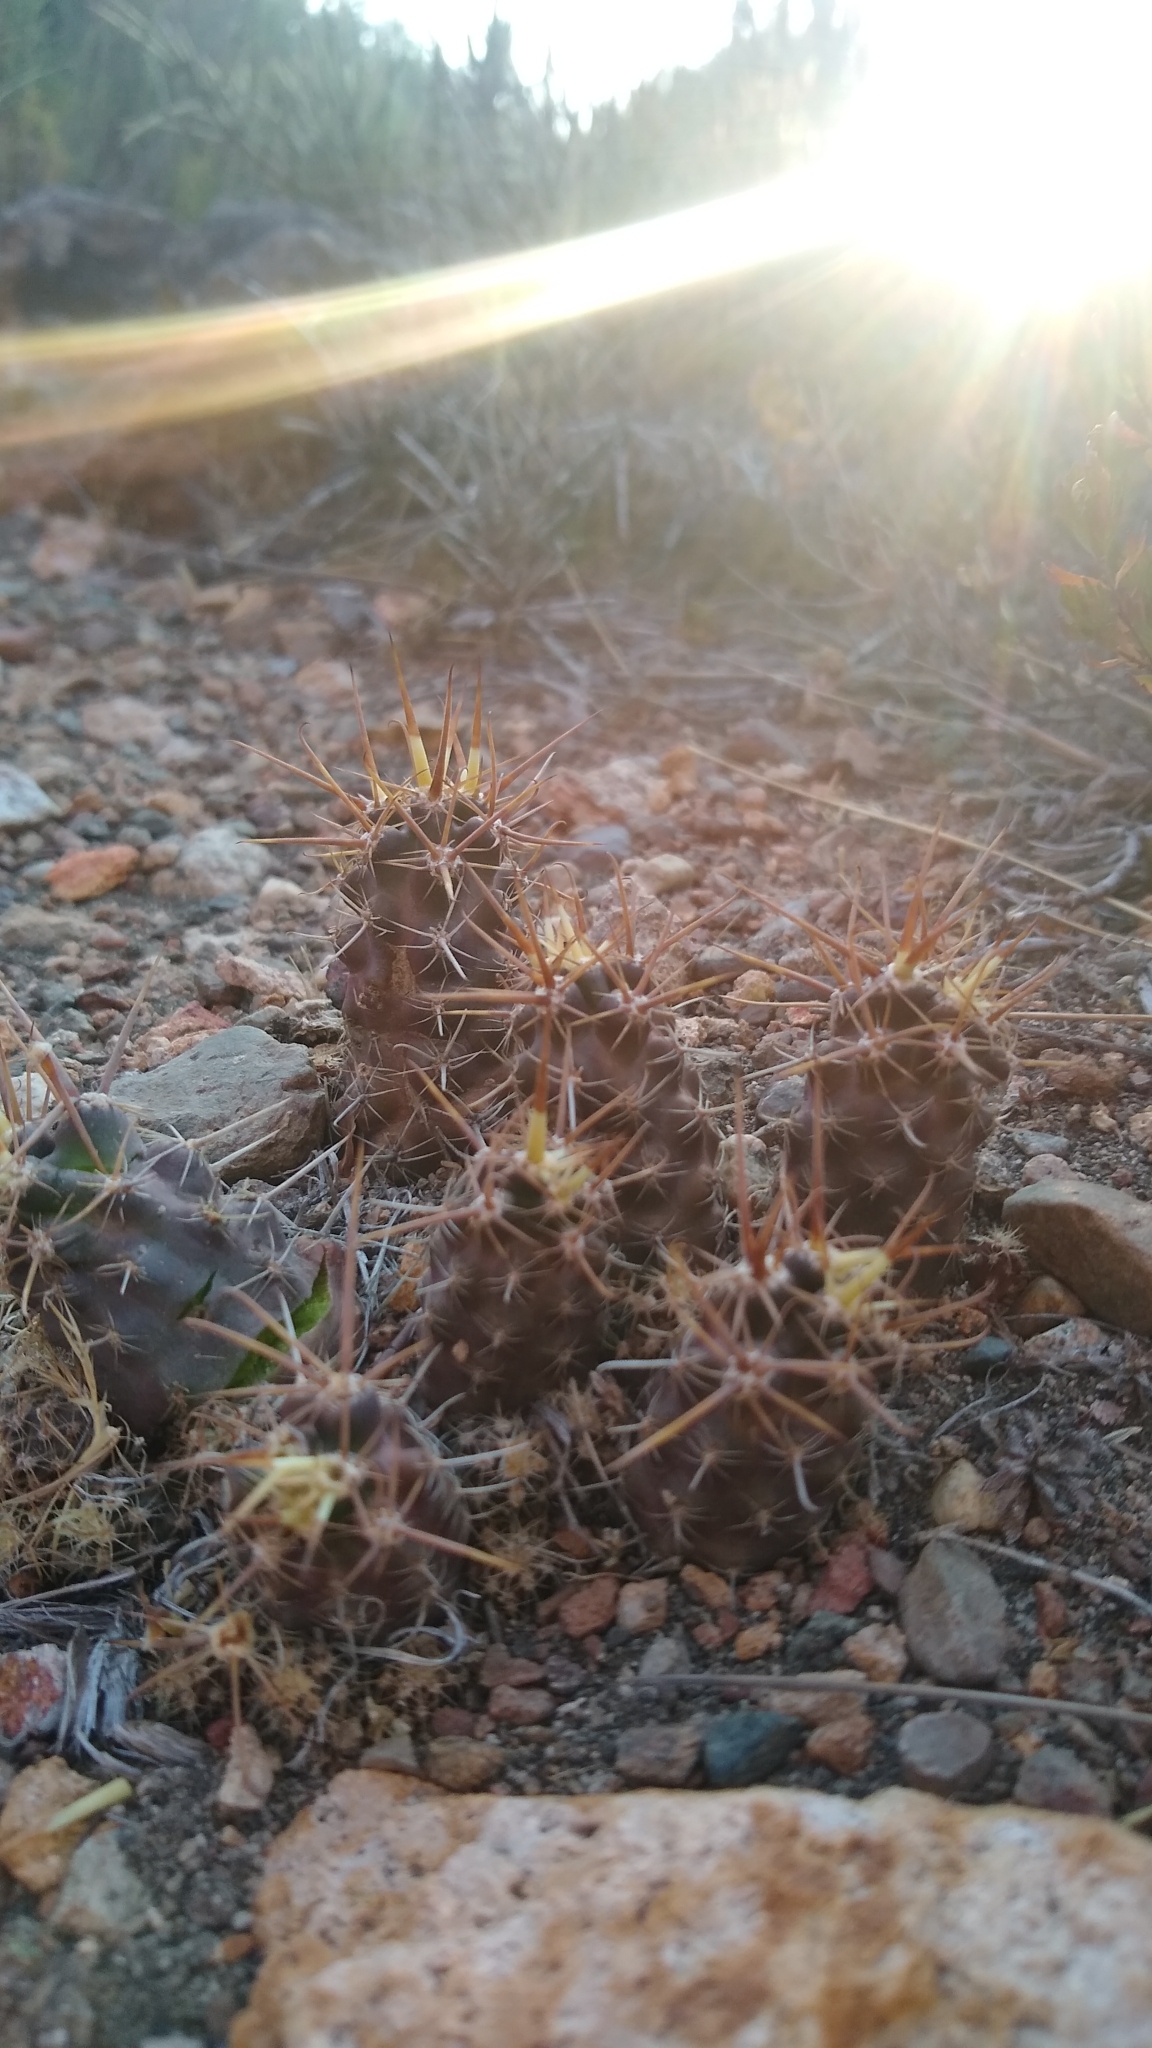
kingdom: Plantae
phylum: Tracheophyta
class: Magnoliopsida
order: Caryophyllales
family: Cactaceae
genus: Austrocactus
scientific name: Austrocactus coxii
